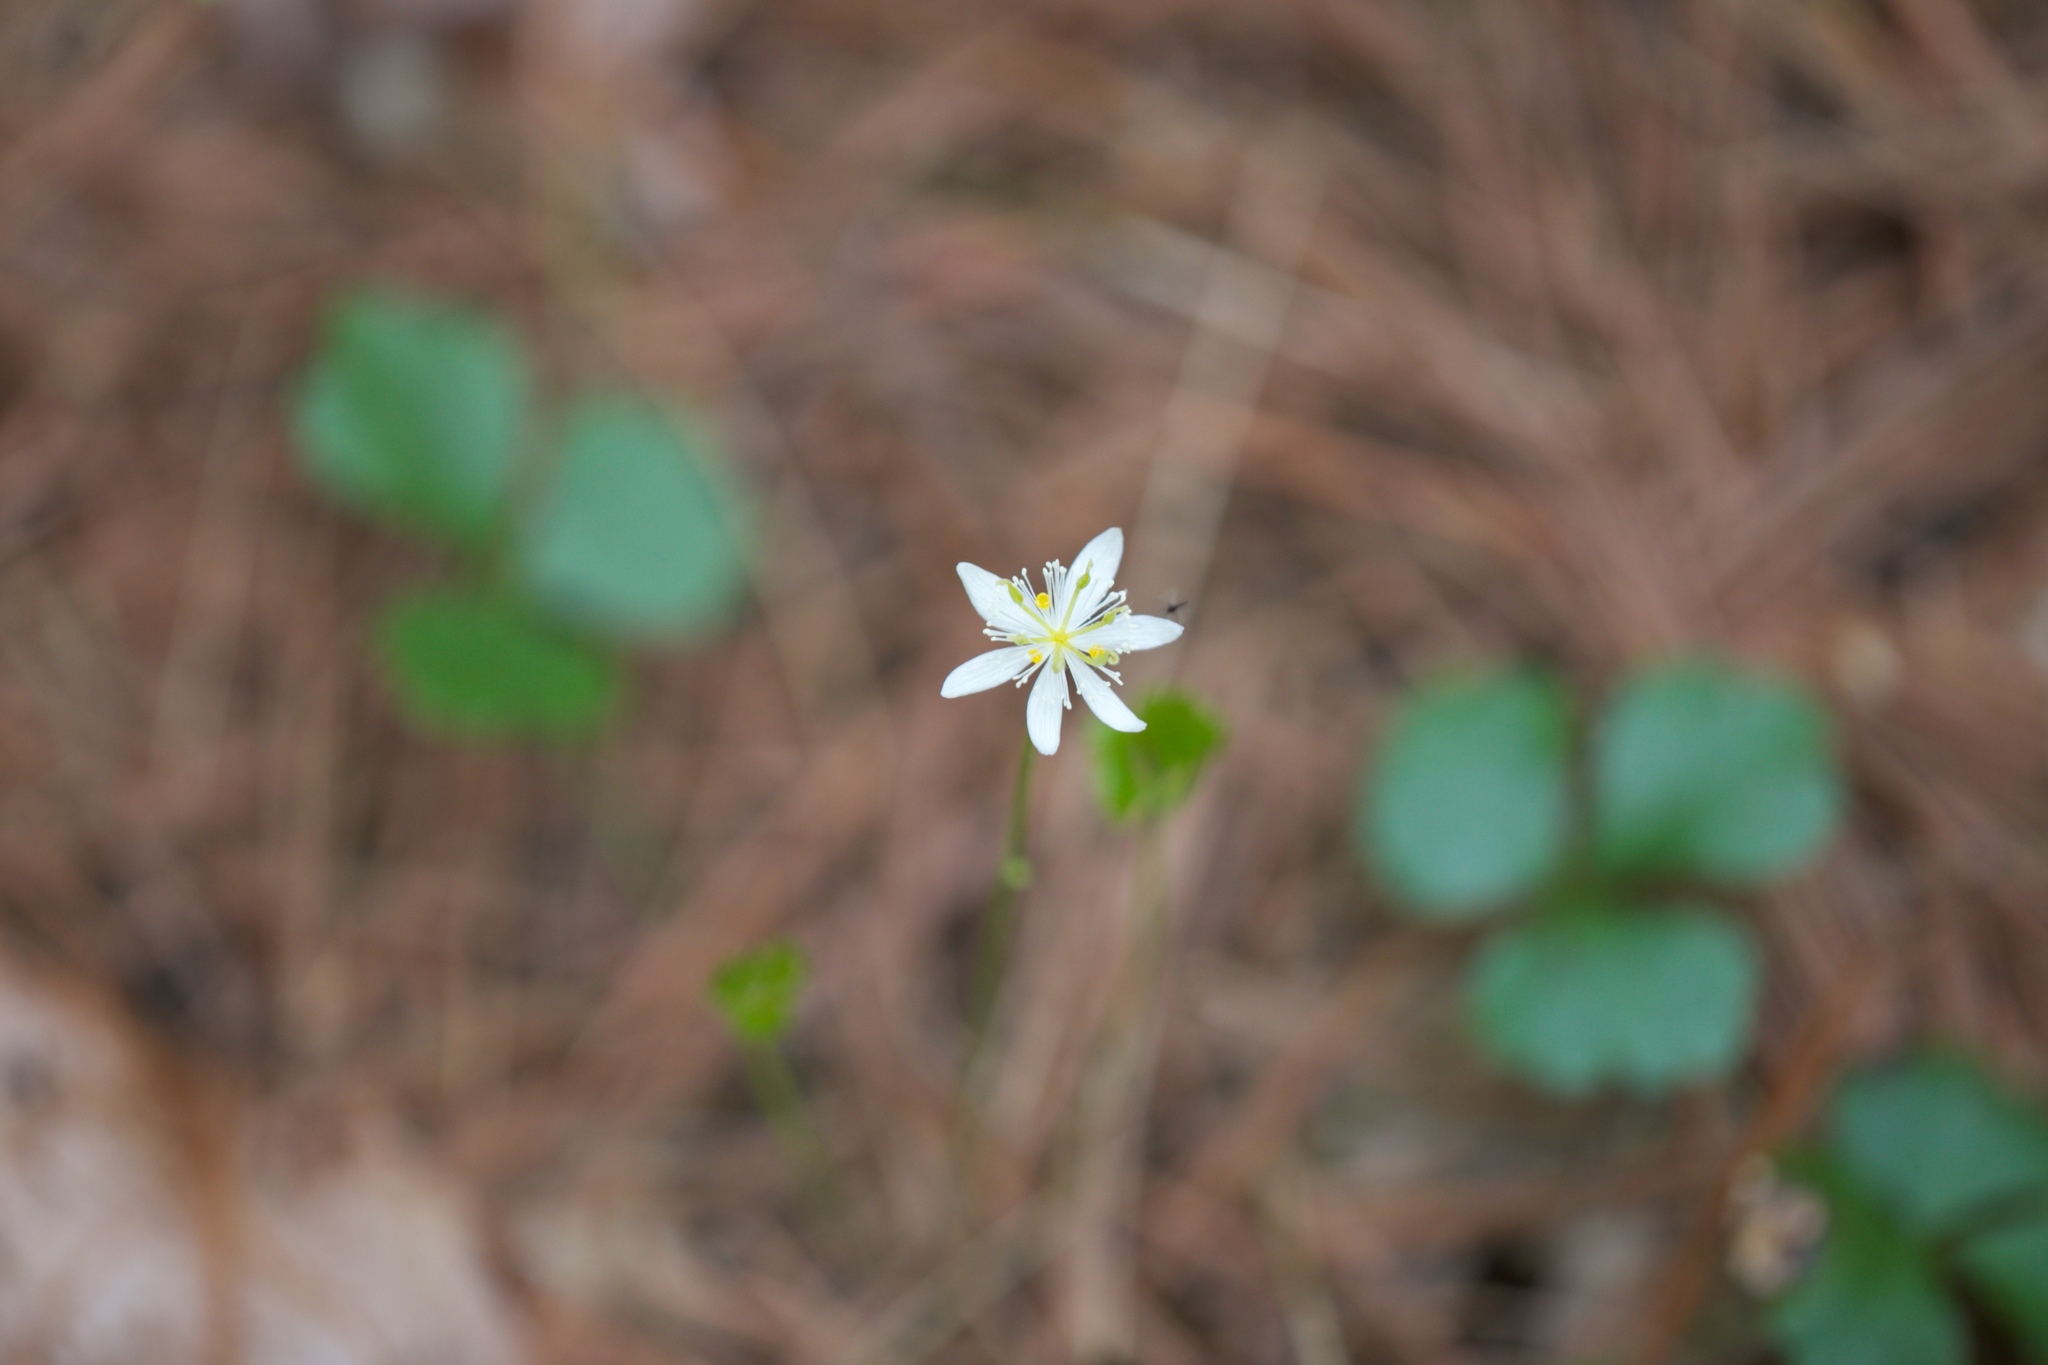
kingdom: Plantae
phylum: Tracheophyta
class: Magnoliopsida
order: Ranunculales
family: Ranunculaceae
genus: Coptis
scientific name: Coptis trifolia
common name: Canker-root
